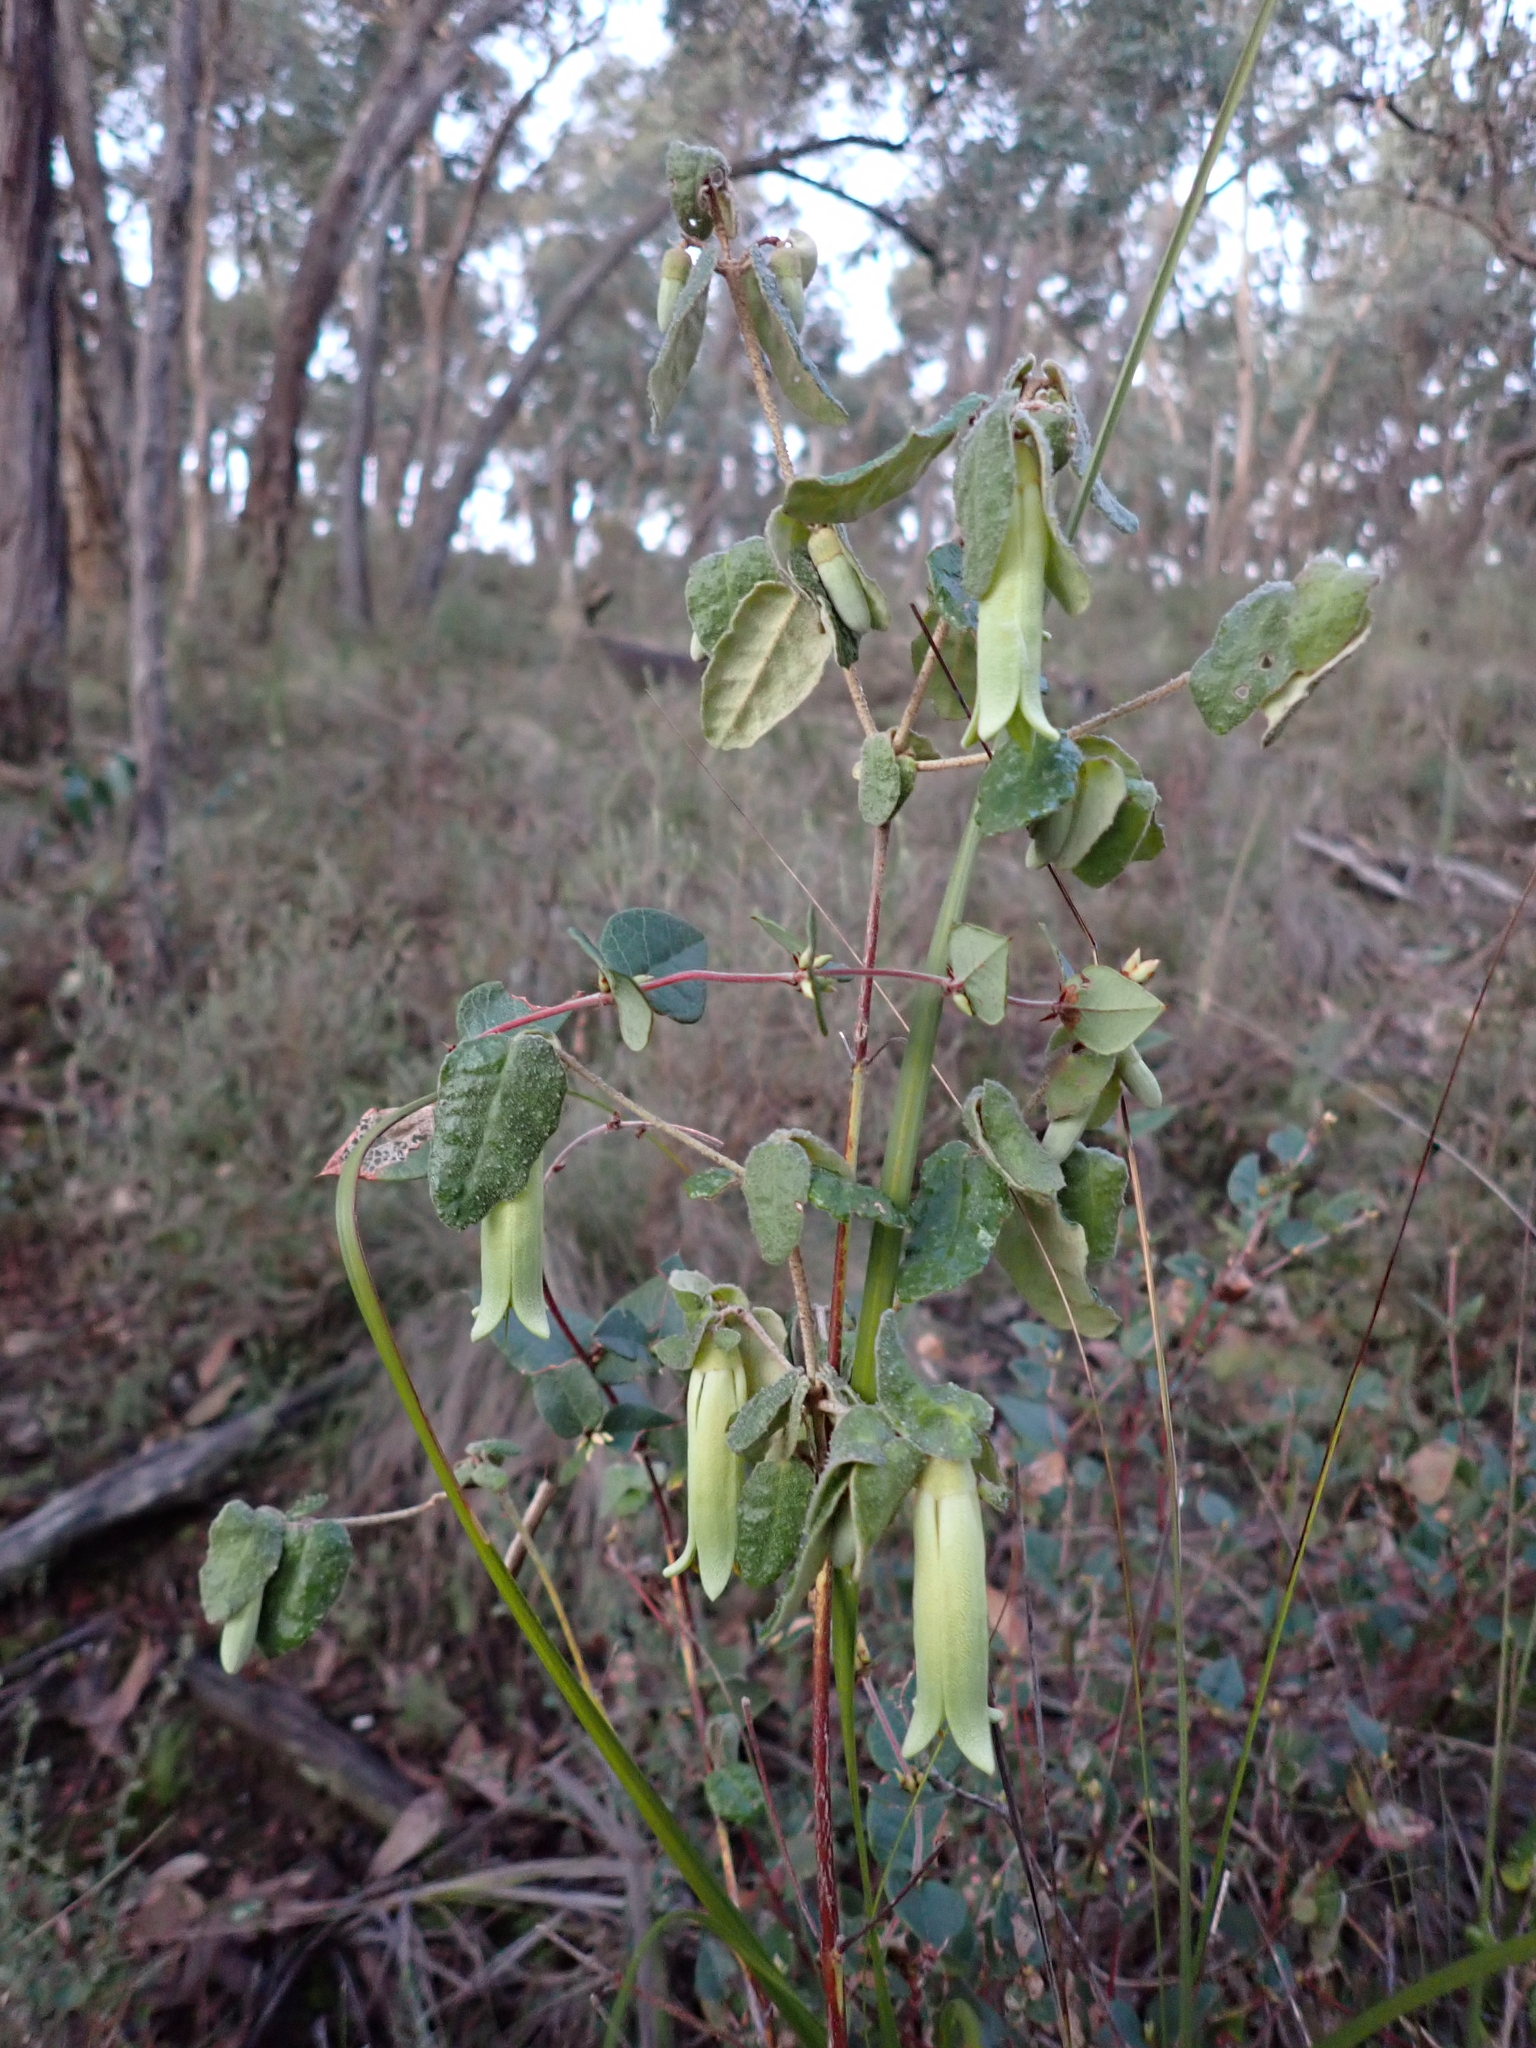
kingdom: Plantae
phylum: Tracheophyta
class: Magnoliopsida
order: Sapindales
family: Rutaceae
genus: Correa
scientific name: Correa reflexa
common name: Common correa
